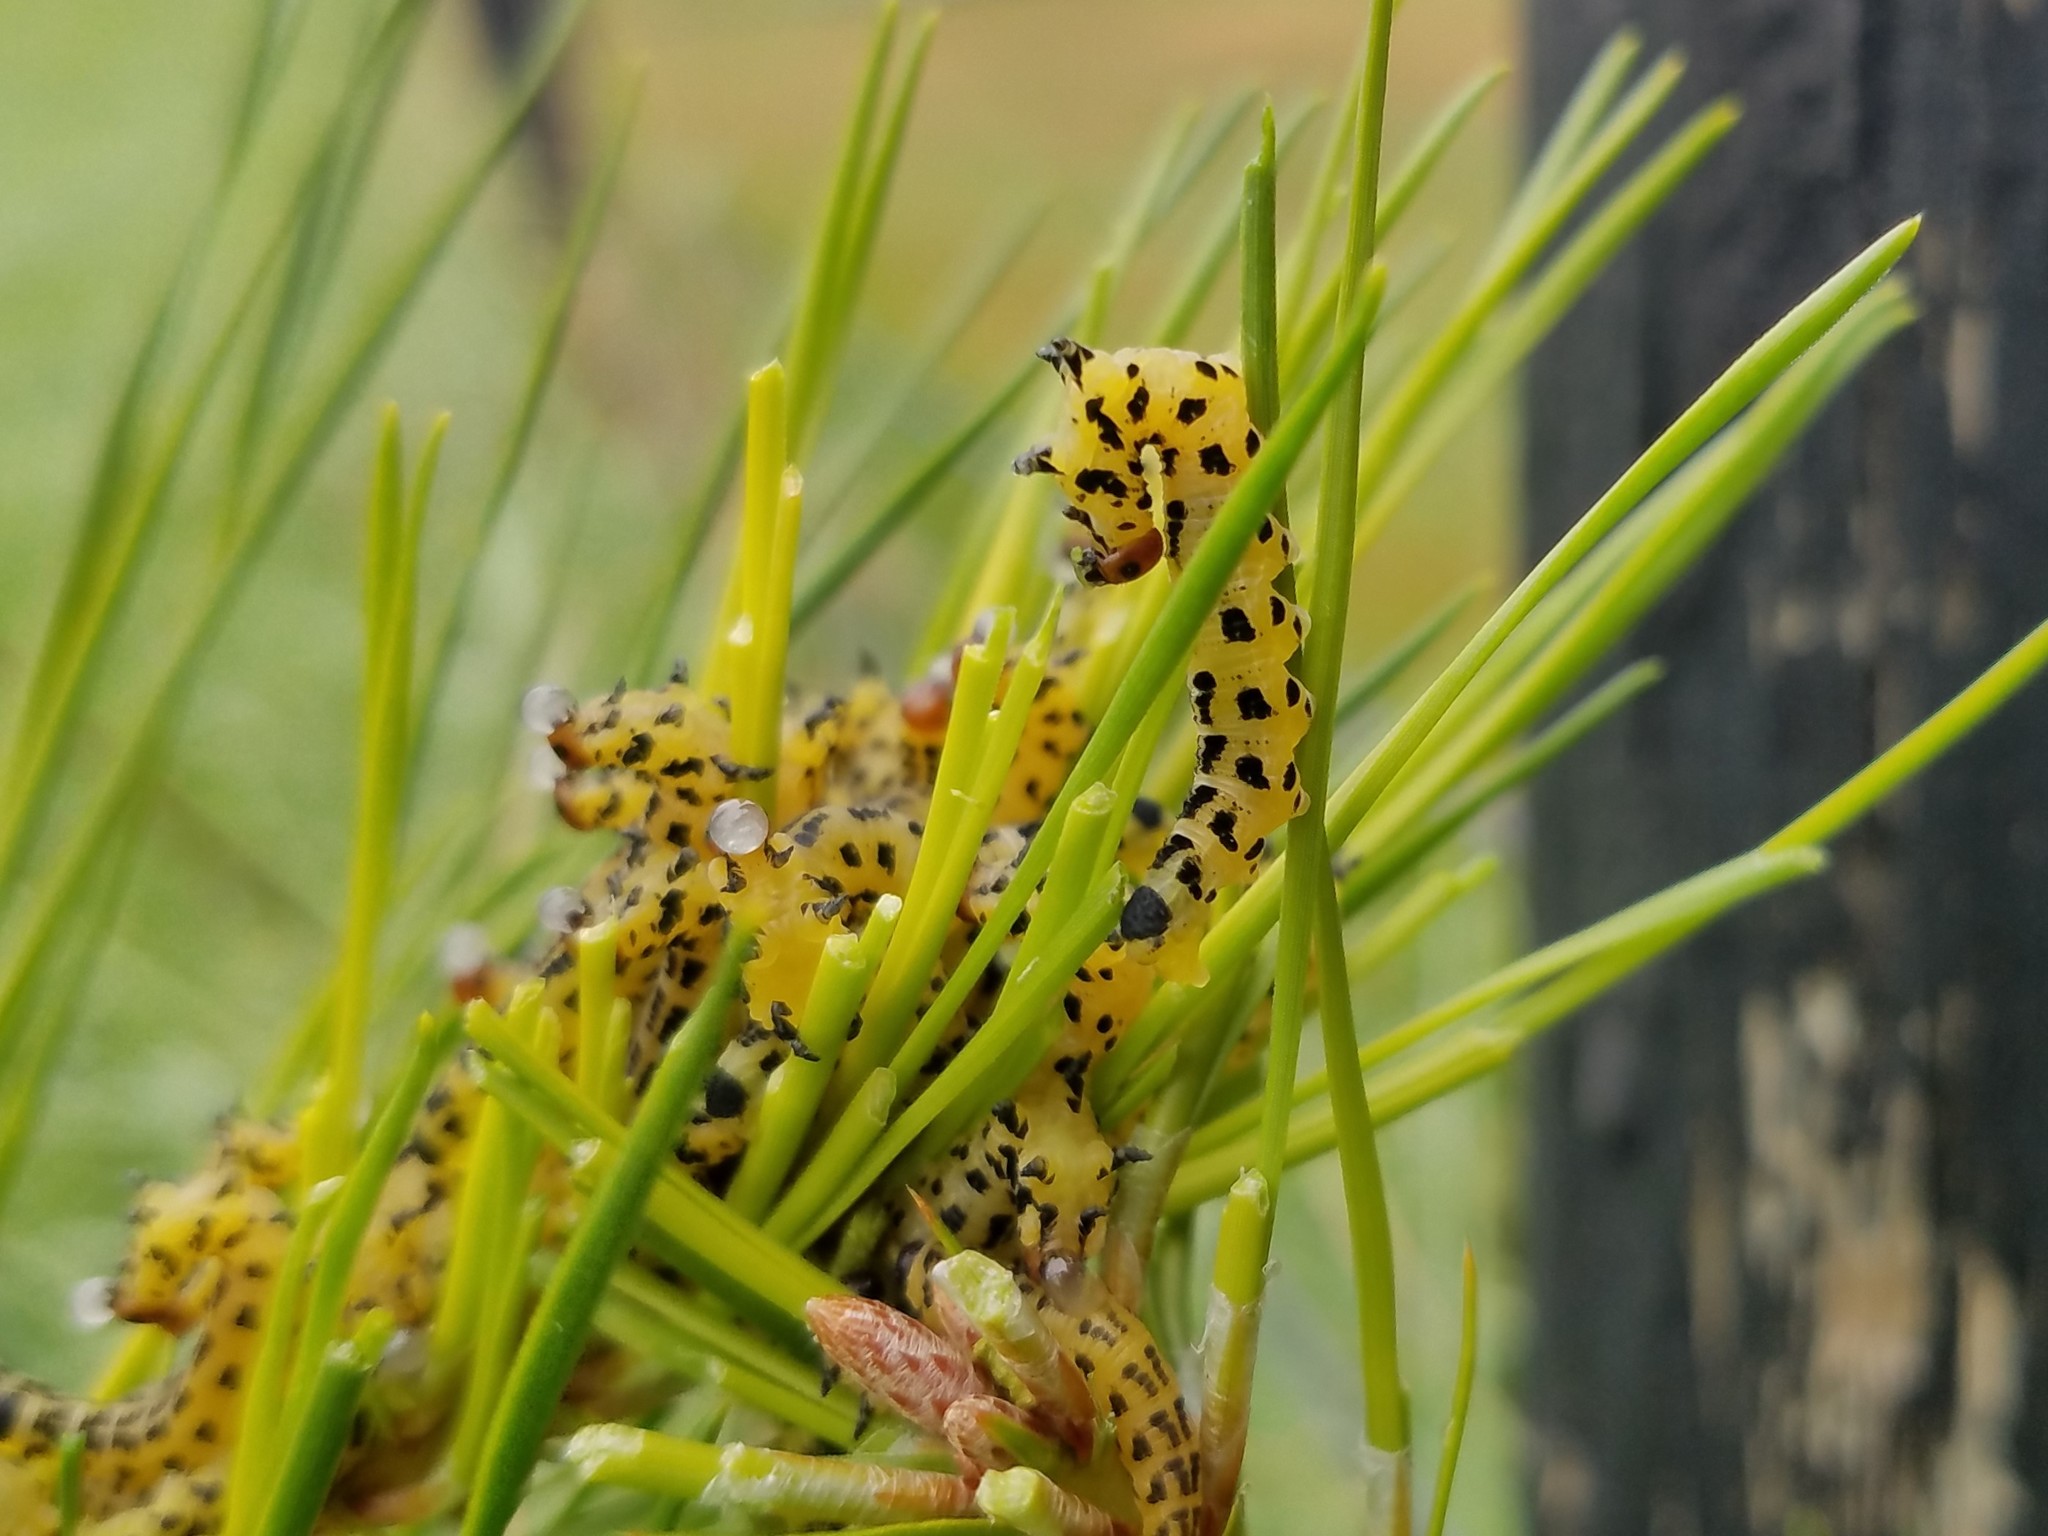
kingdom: Animalia
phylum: Arthropoda
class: Insecta
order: Hymenoptera
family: Diprionidae
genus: Neodiprion
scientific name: Neodiprion lecontei
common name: Redheaded pine sawfly
